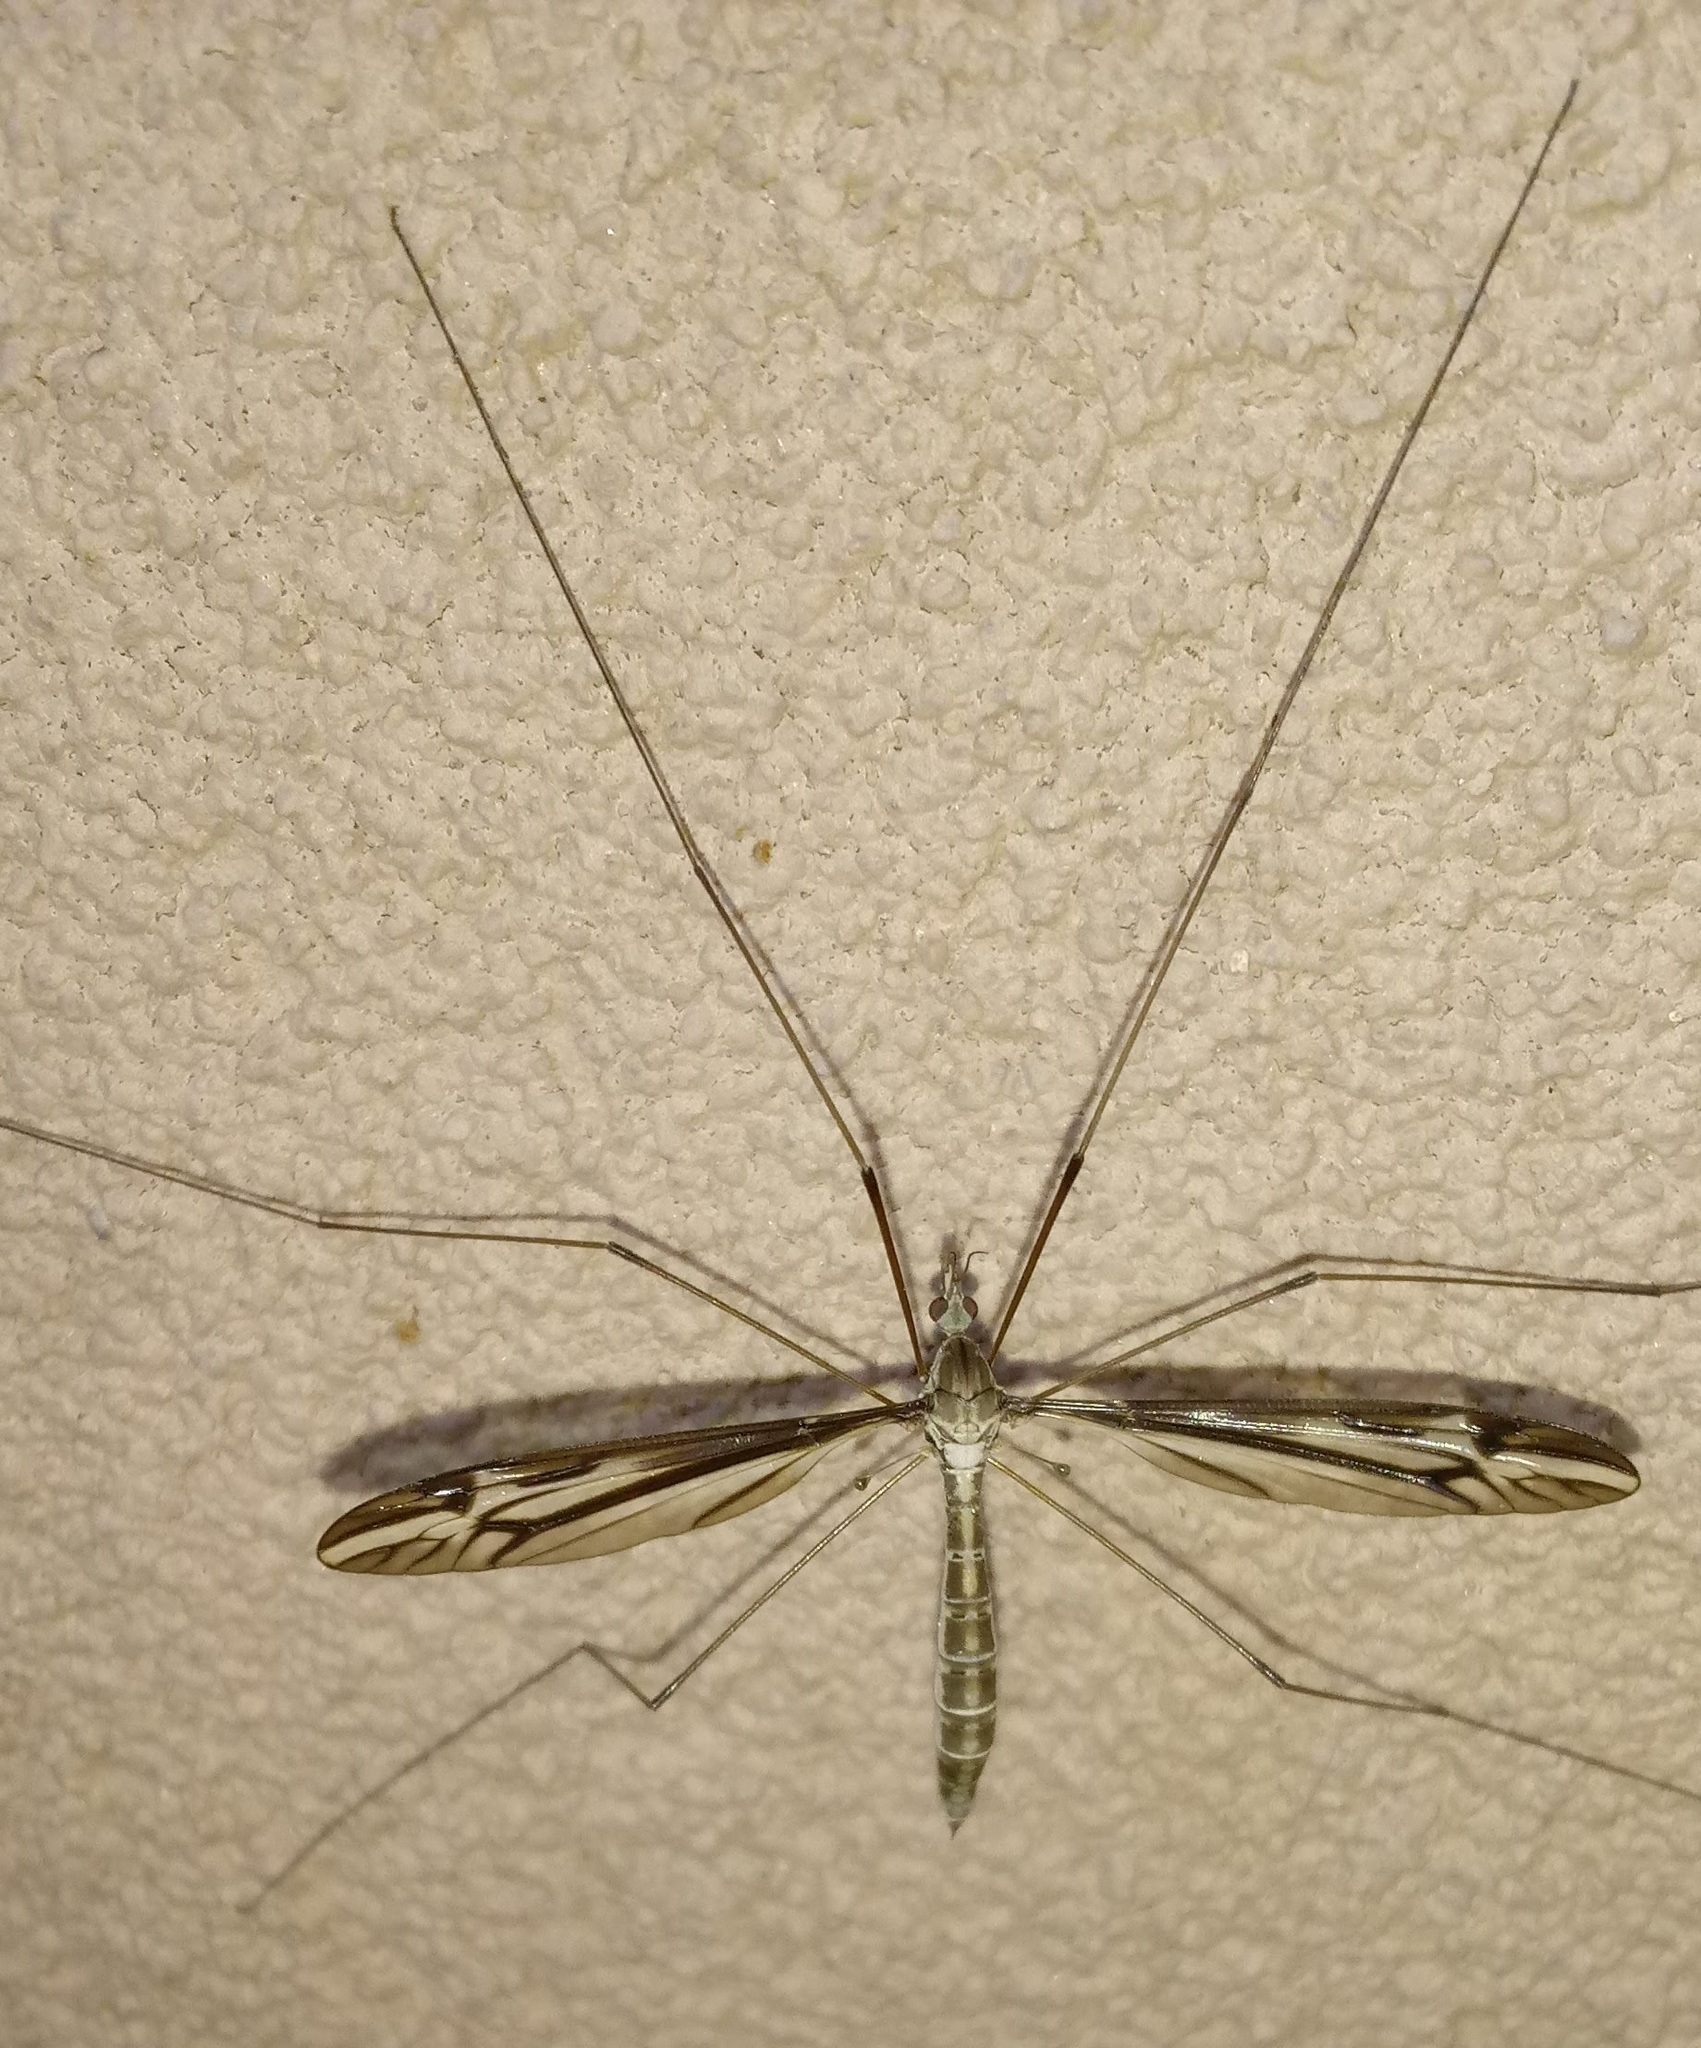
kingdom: Animalia
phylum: Arthropoda
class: Insecta
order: Diptera
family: Tipulidae
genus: Tipula
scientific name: Tipula furca
